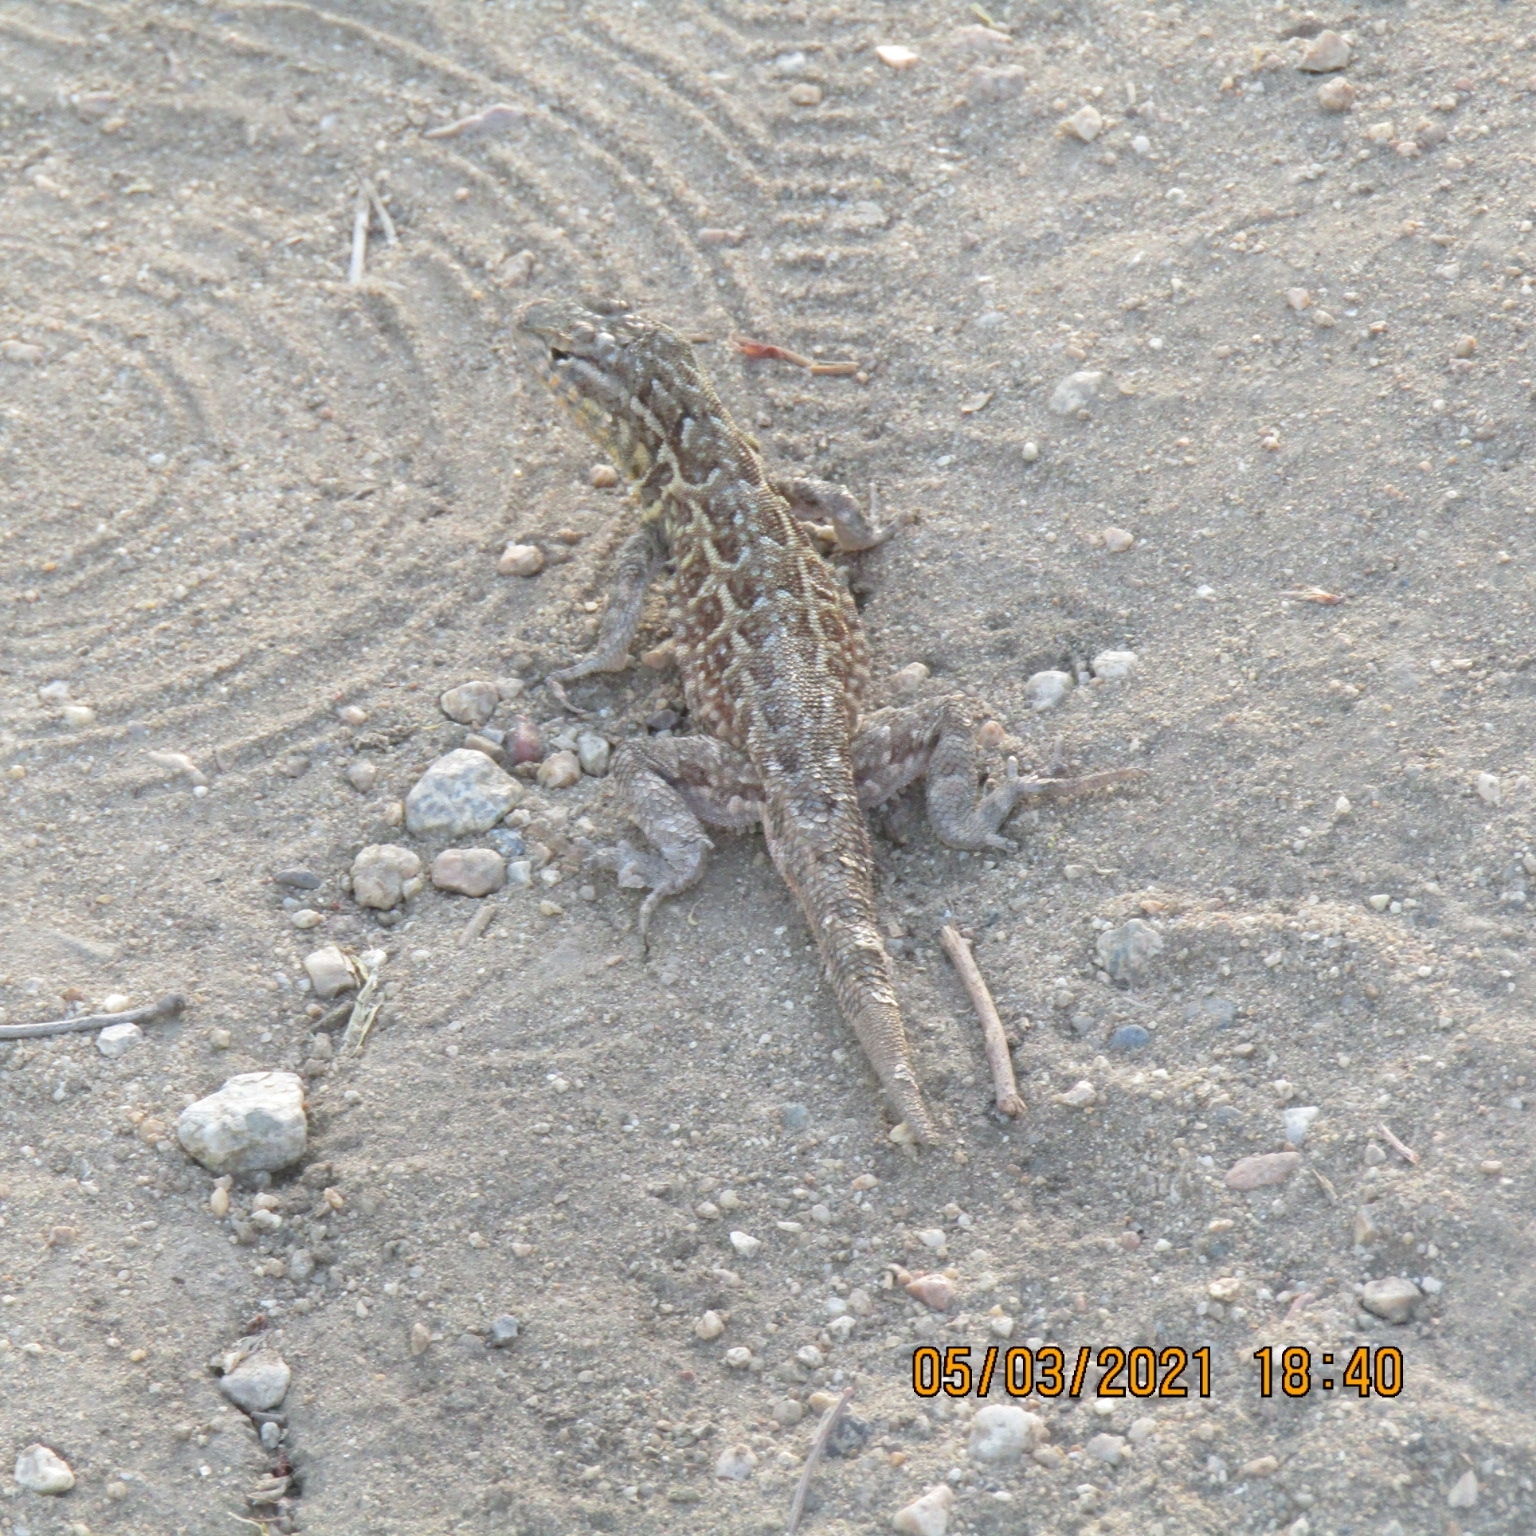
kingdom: Animalia
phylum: Chordata
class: Squamata
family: Phrynosomatidae
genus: Uta
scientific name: Uta stansburiana
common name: Side-blotched lizard
